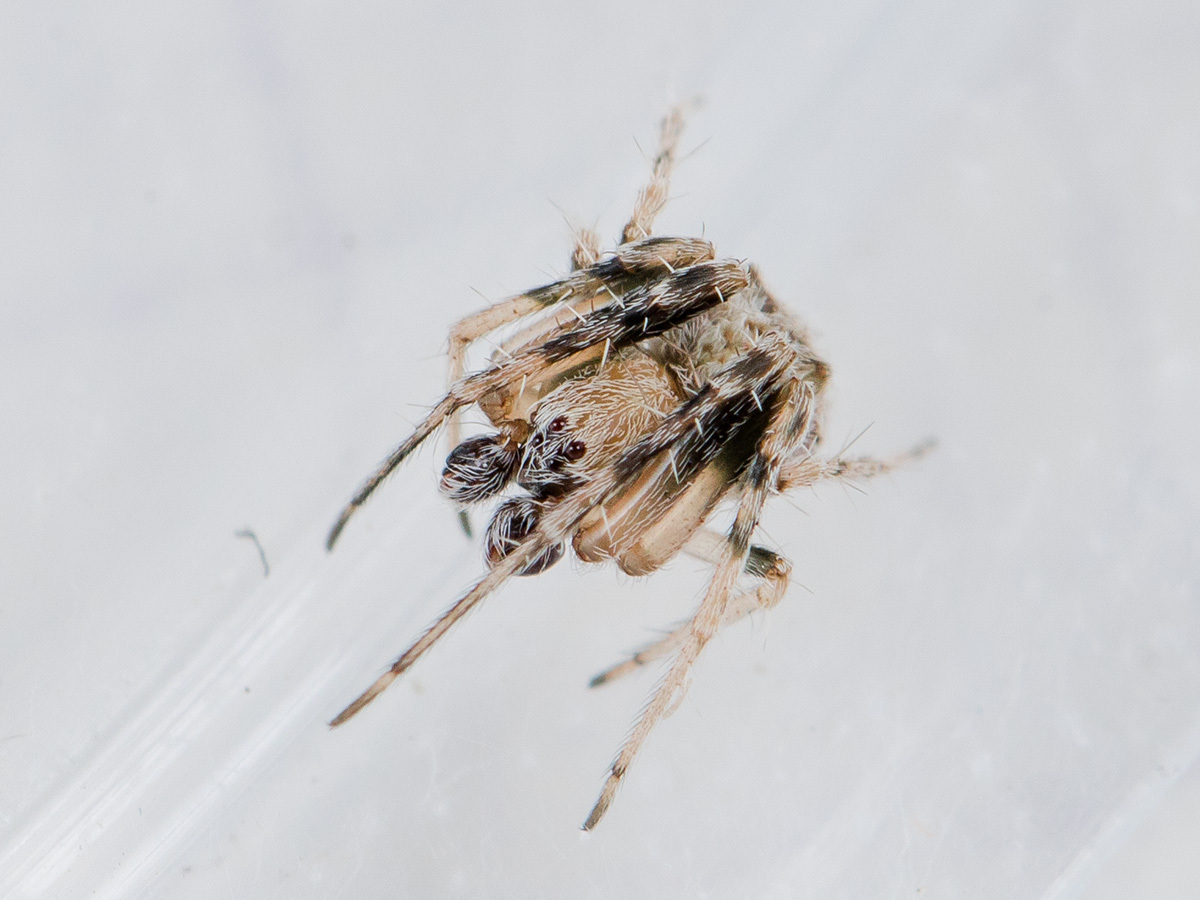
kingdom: Animalia
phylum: Arthropoda
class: Arachnida
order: Araneae
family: Araneidae
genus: Araneus
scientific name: Araneus strandiellus
